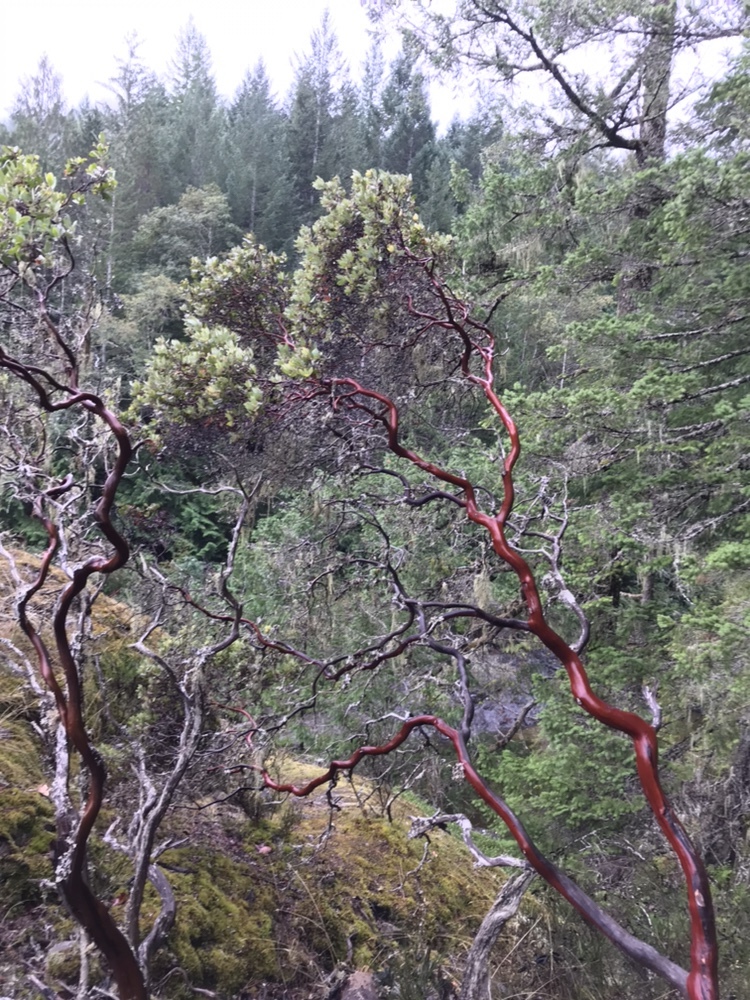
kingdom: Plantae
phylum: Tracheophyta
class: Magnoliopsida
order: Ericales
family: Ericaceae
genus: Arctostaphylos
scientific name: Arctostaphylos columbiana
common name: Bristly bearberry
